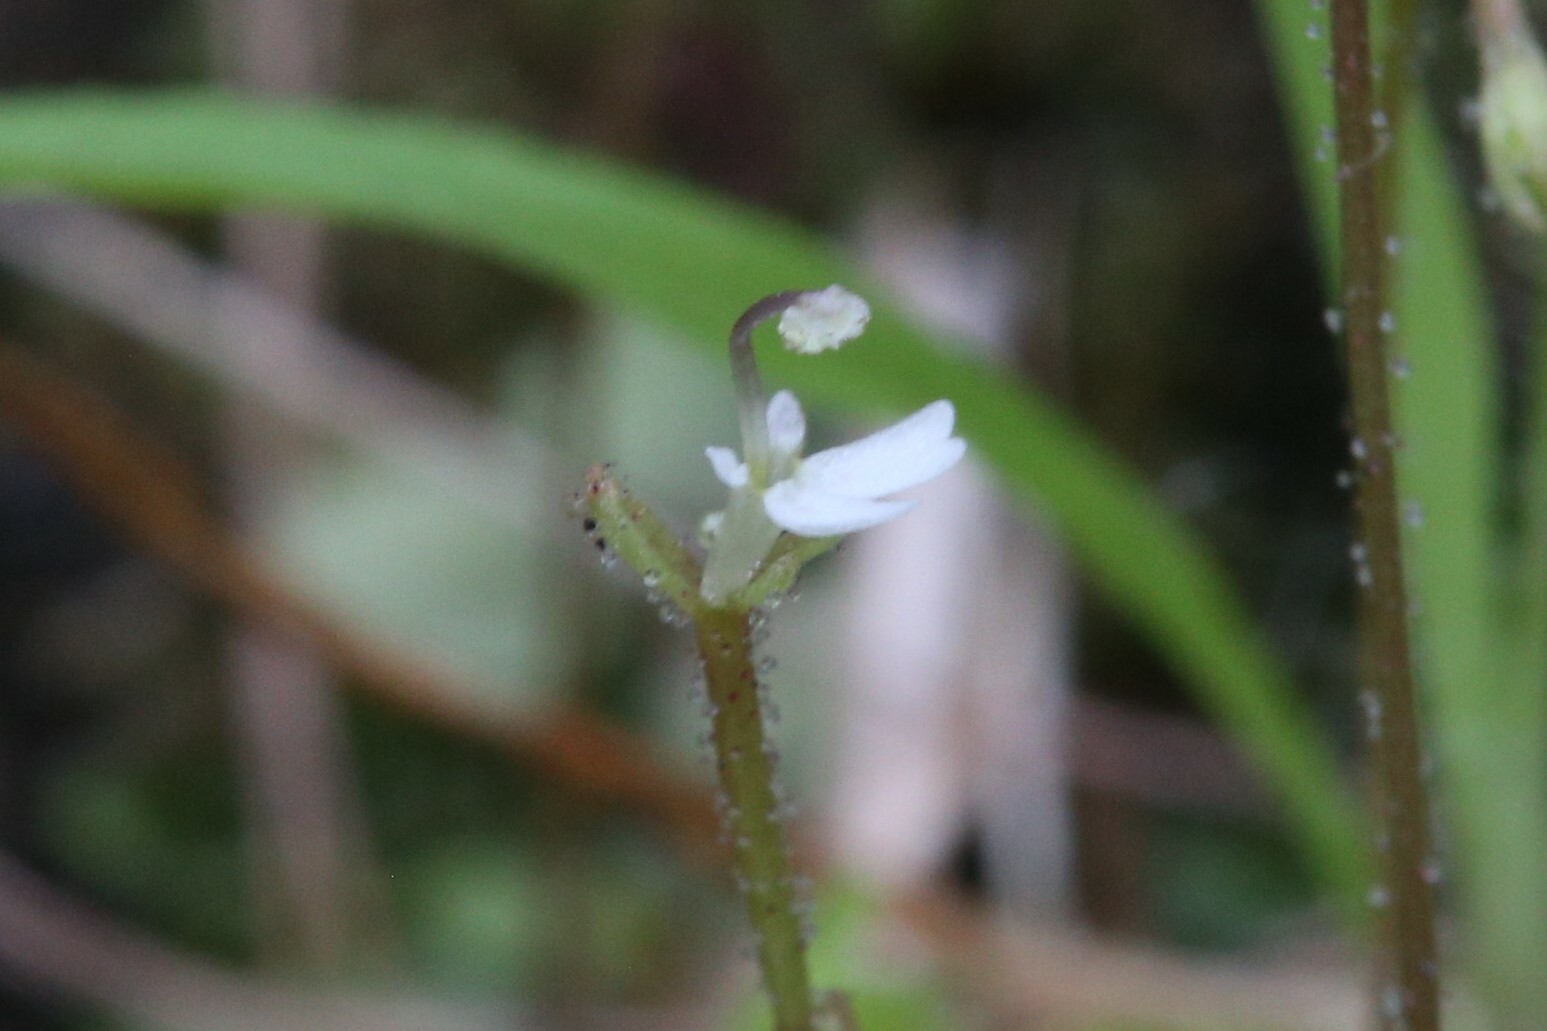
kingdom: Plantae
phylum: Tracheophyta
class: Magnoliopsida
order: Asterales
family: Stylidiaceae
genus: Stylidium
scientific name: Stylidium tenerum
